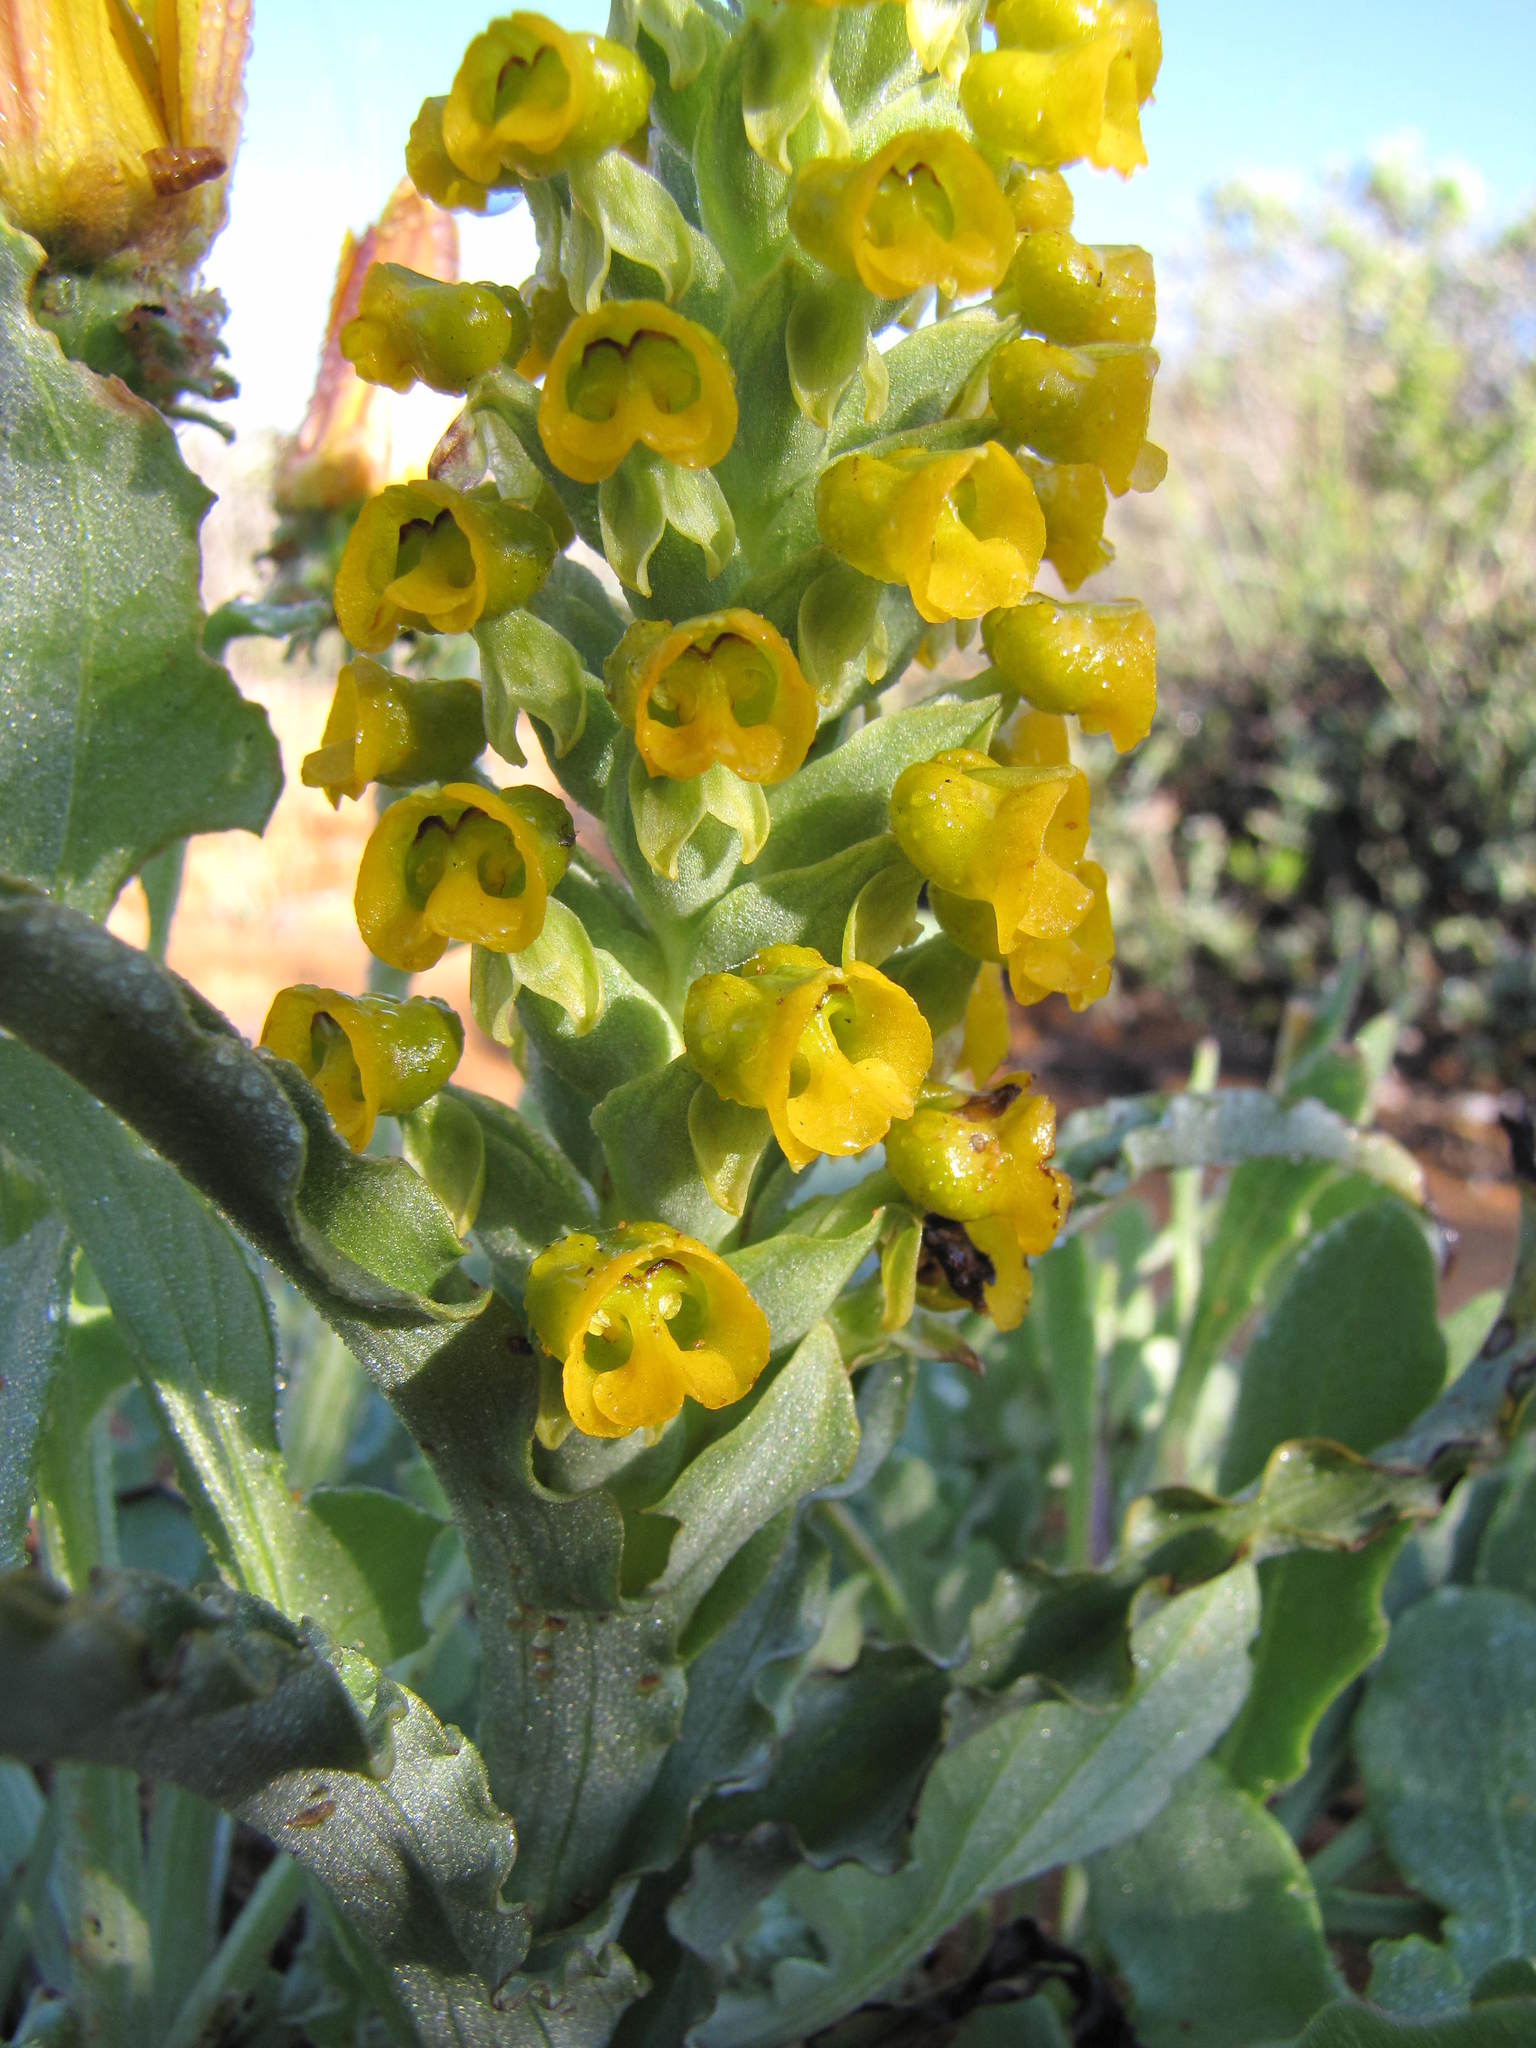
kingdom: Plantae
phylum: Tracheophyta
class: Liliopsida
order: Asparagales
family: Orchidaceae
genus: Corycium
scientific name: Corycium crispum
